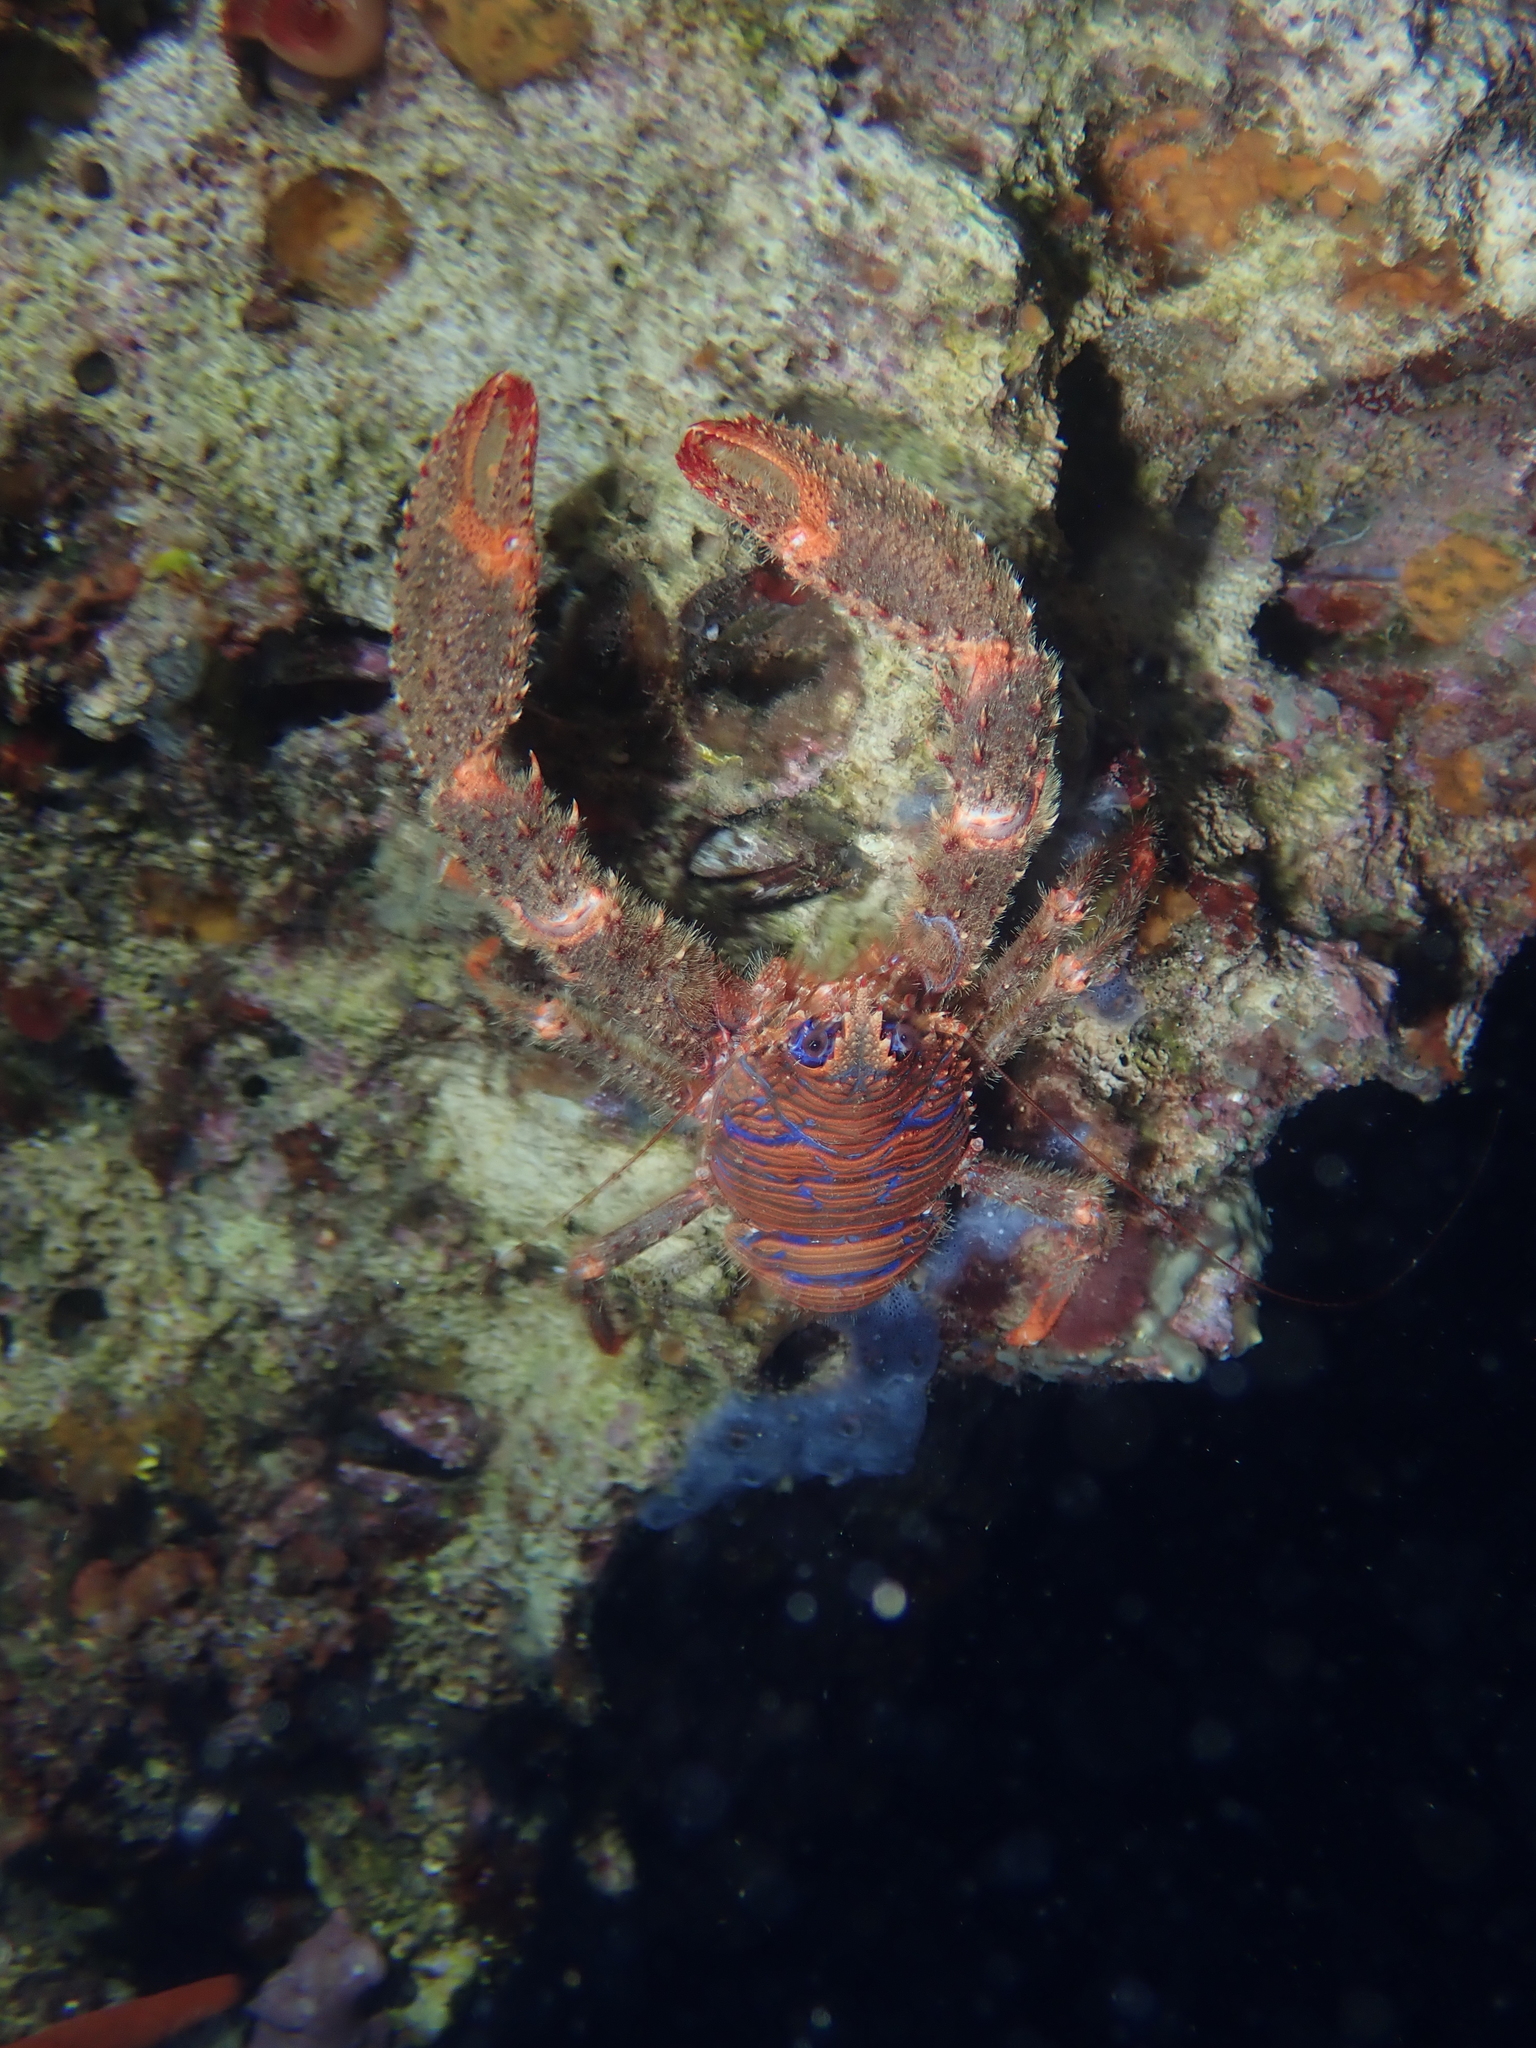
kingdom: Animalia
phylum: Arthropoda
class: Malacostraca
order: Decapoda
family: Galatheidae
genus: Galathea
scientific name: Galathea strigosa
